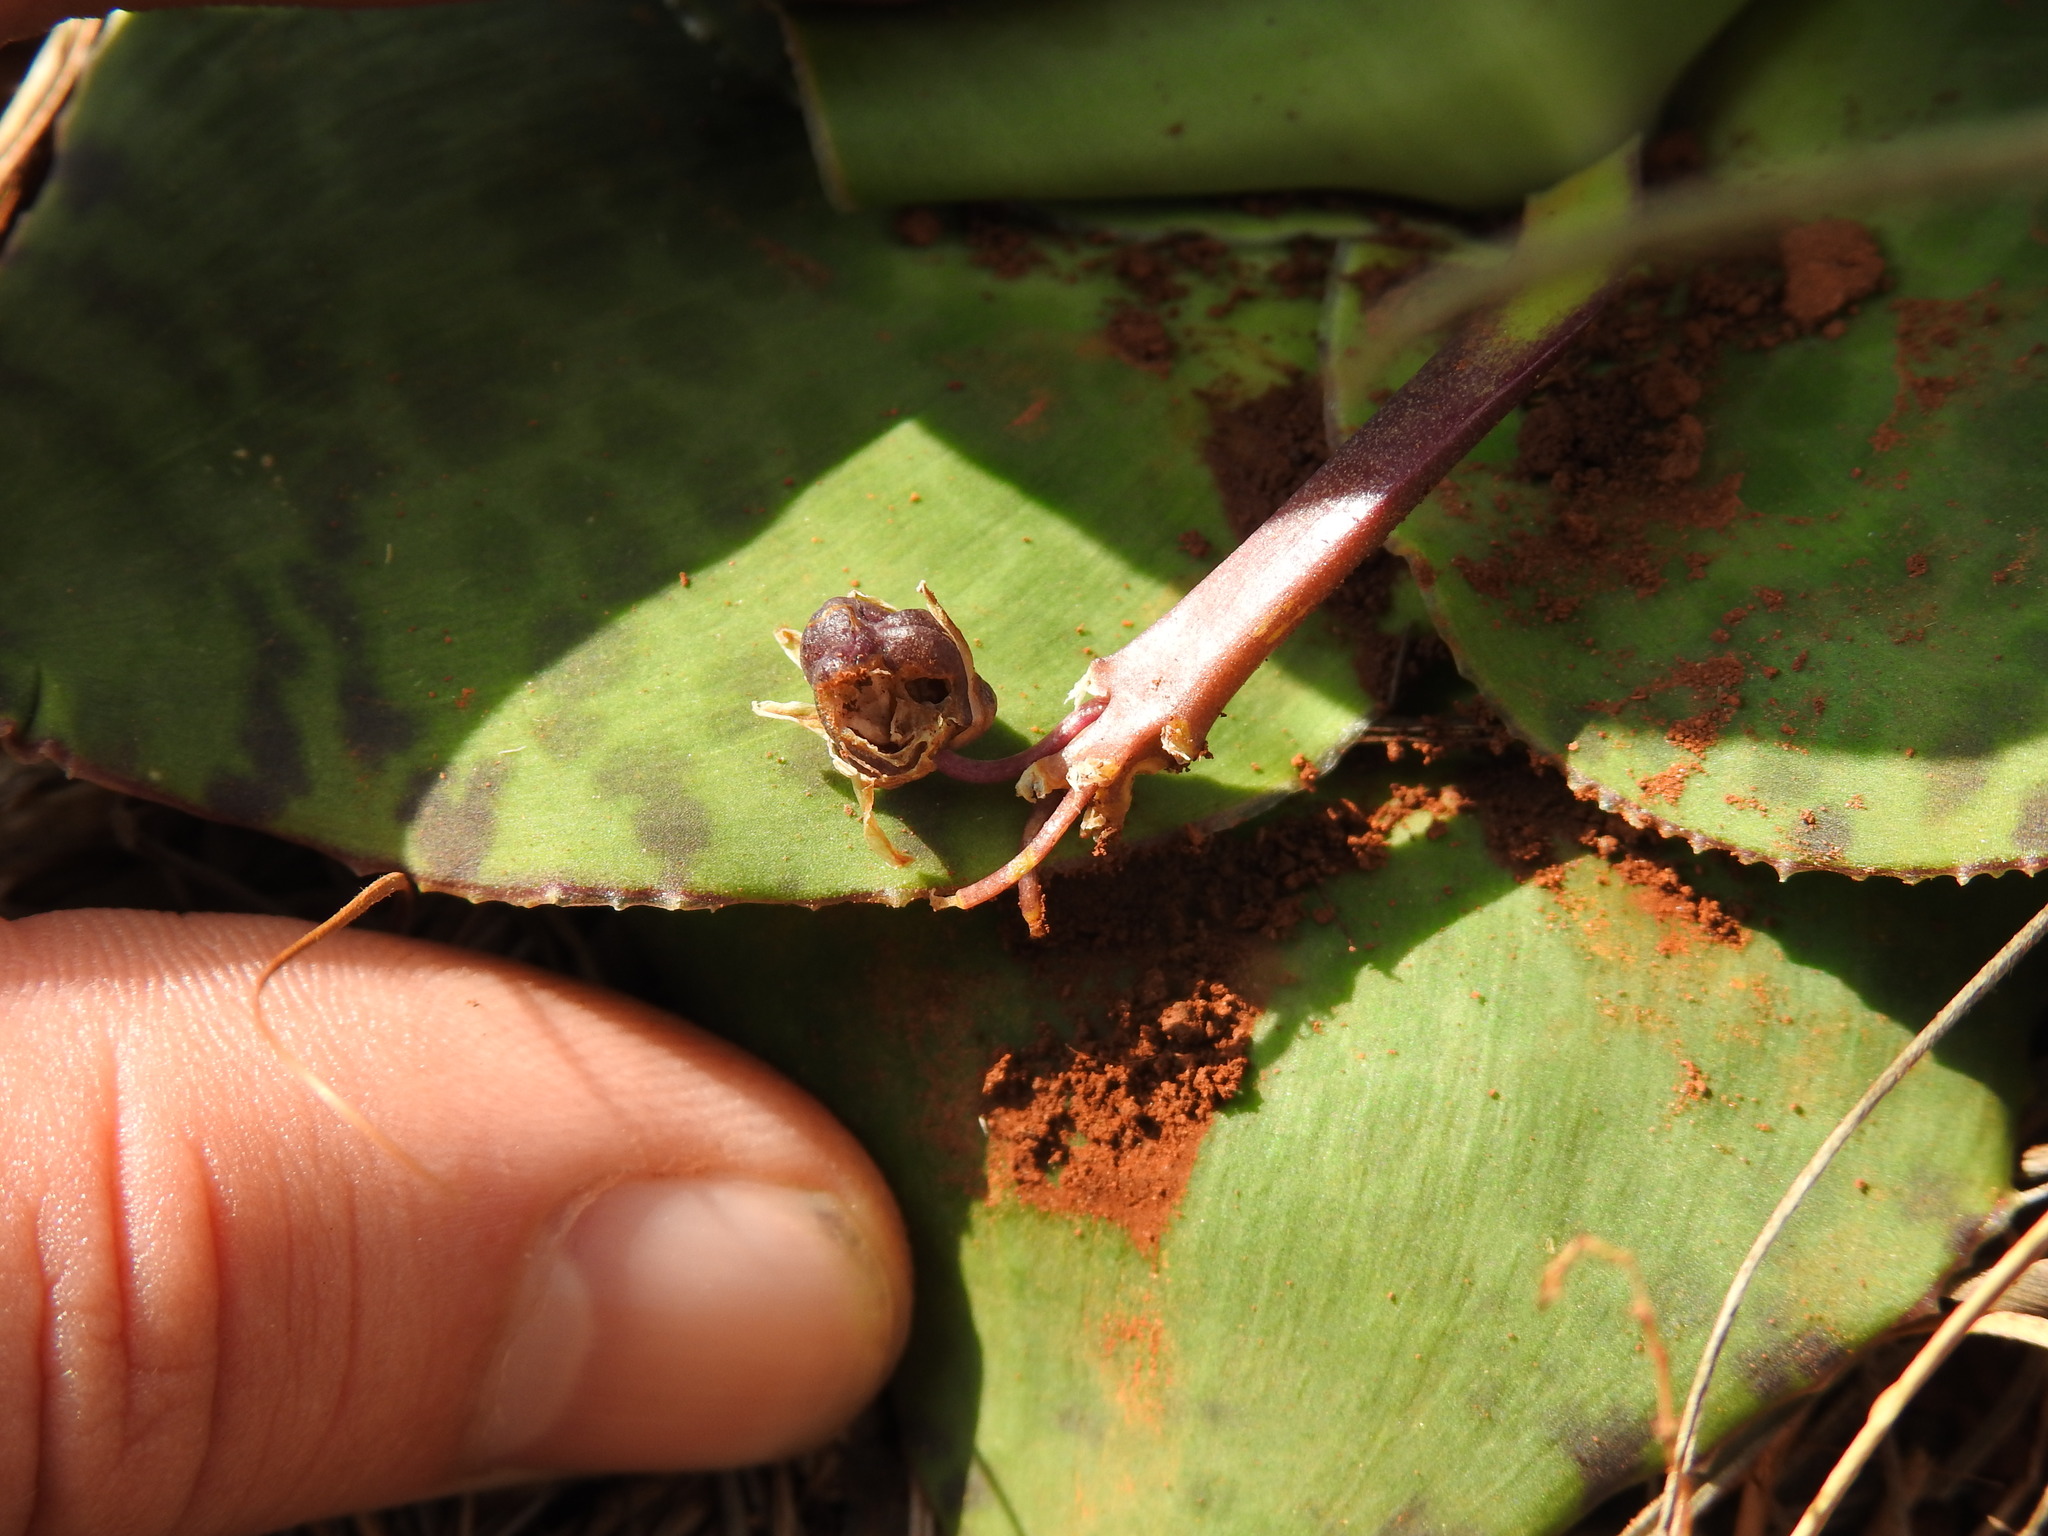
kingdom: Plantae
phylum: Tracheophyta
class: Liliopsida
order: Asparagales
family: Asparagaceae
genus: Ledebouria
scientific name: Ledebouria ovatifolia
